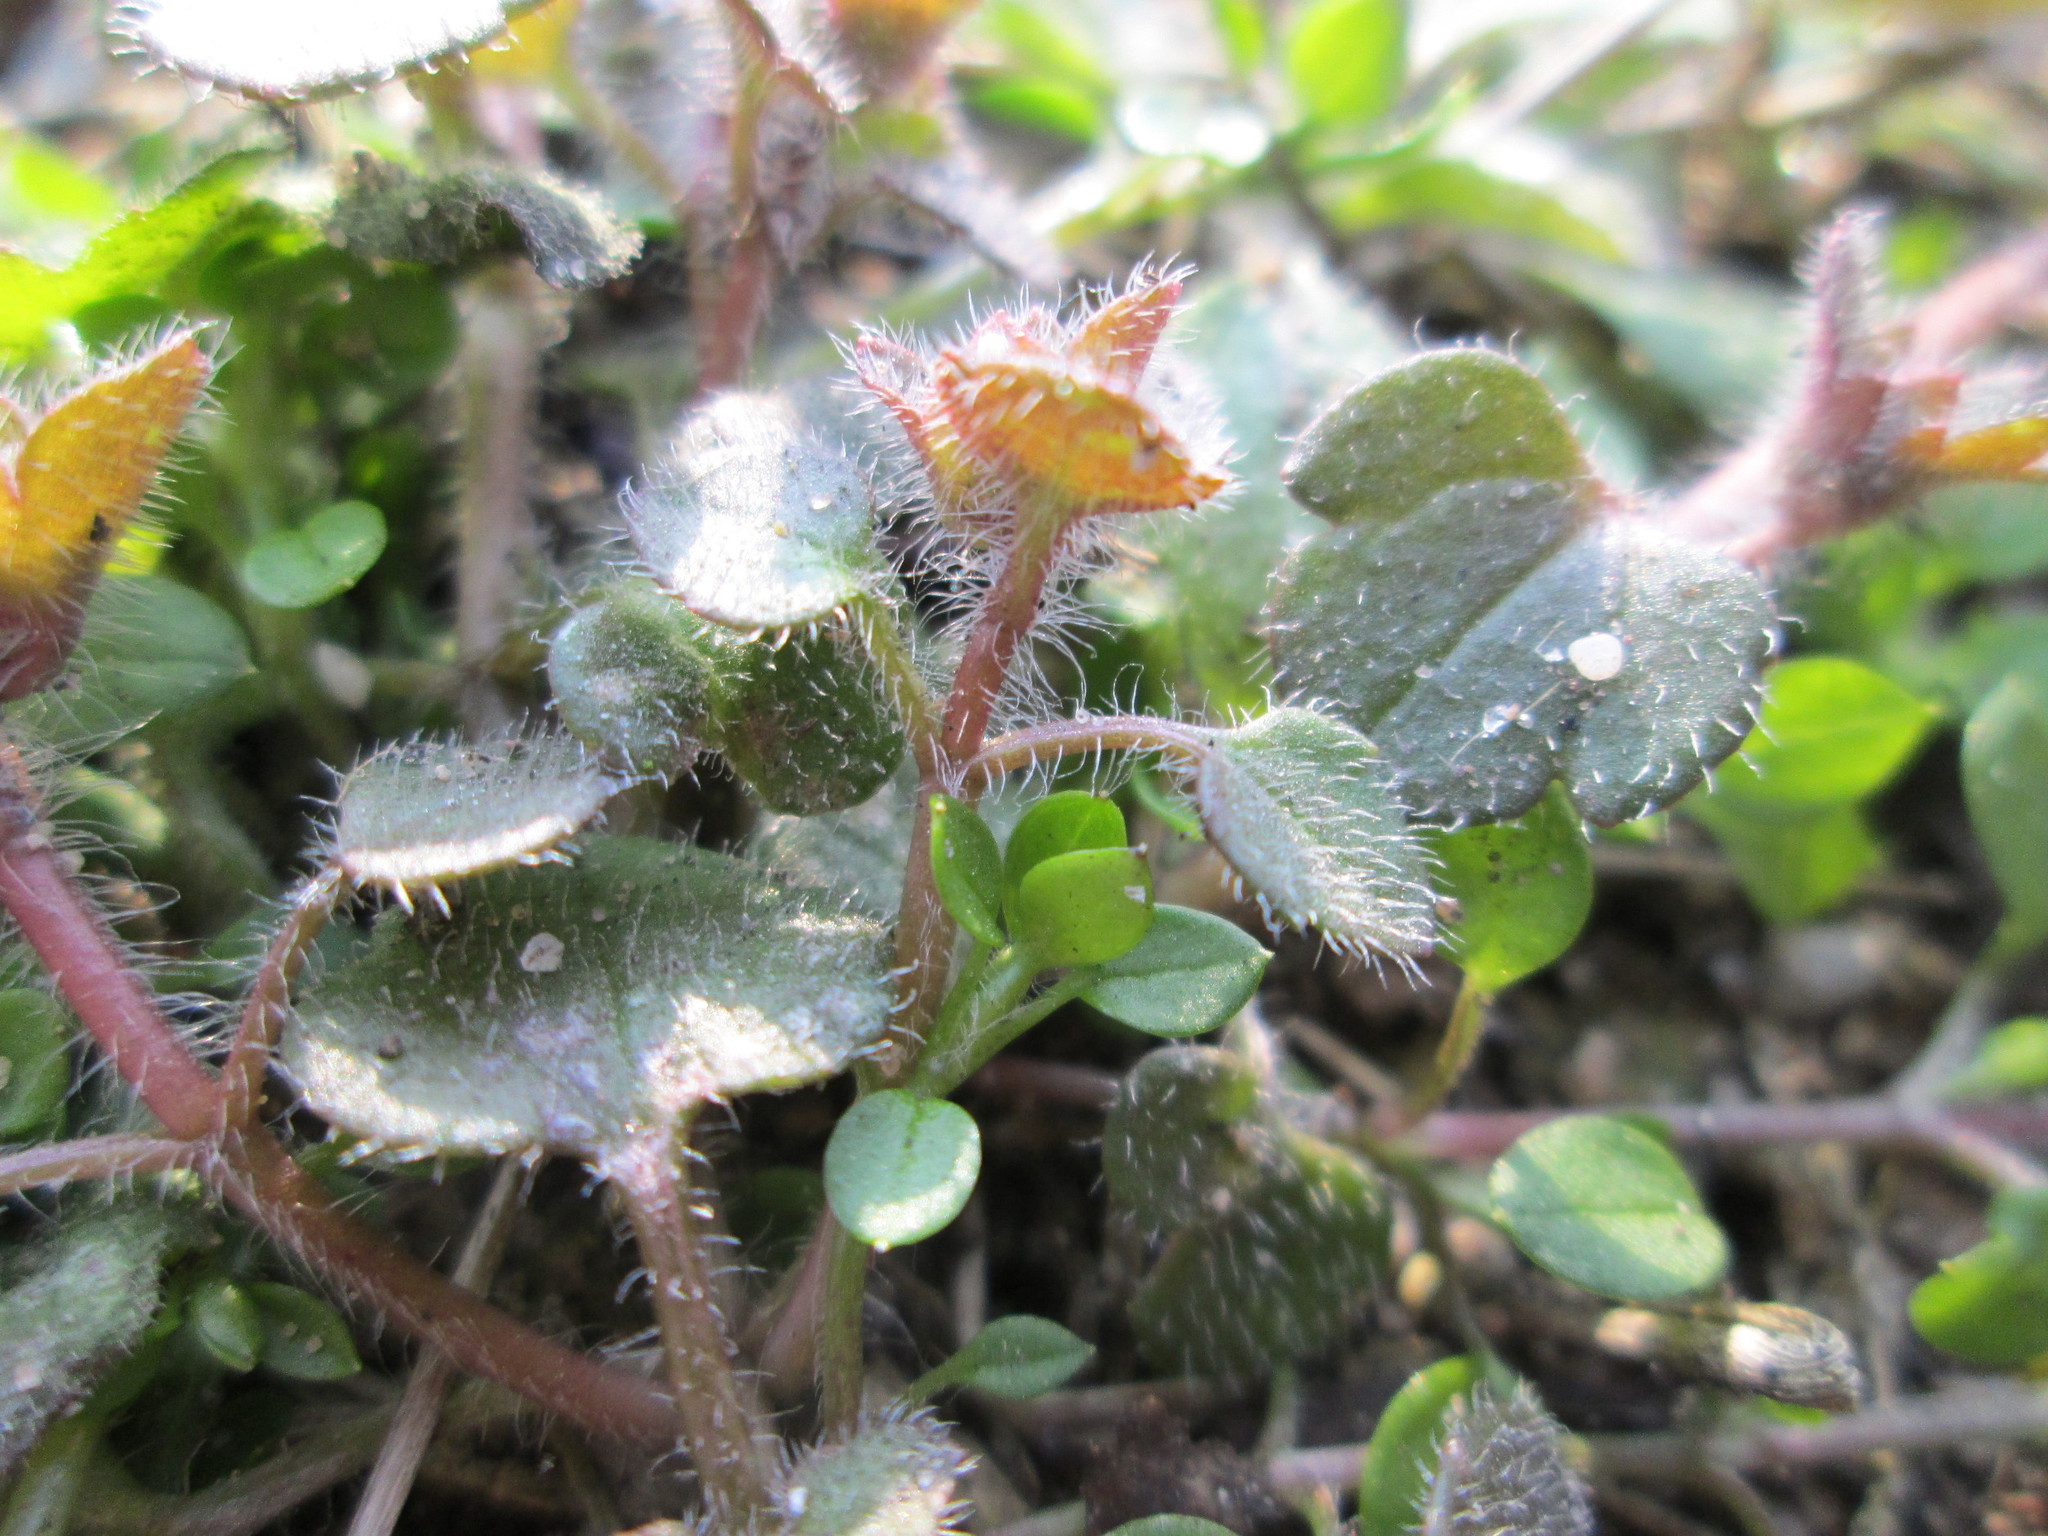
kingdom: Plantae
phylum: Tracheophyta
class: Magnoliopsida
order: Lamiales
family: Plantaginaceae
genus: Veronica
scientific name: Veronica hederifolia
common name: Ivy-leaved speedwell
